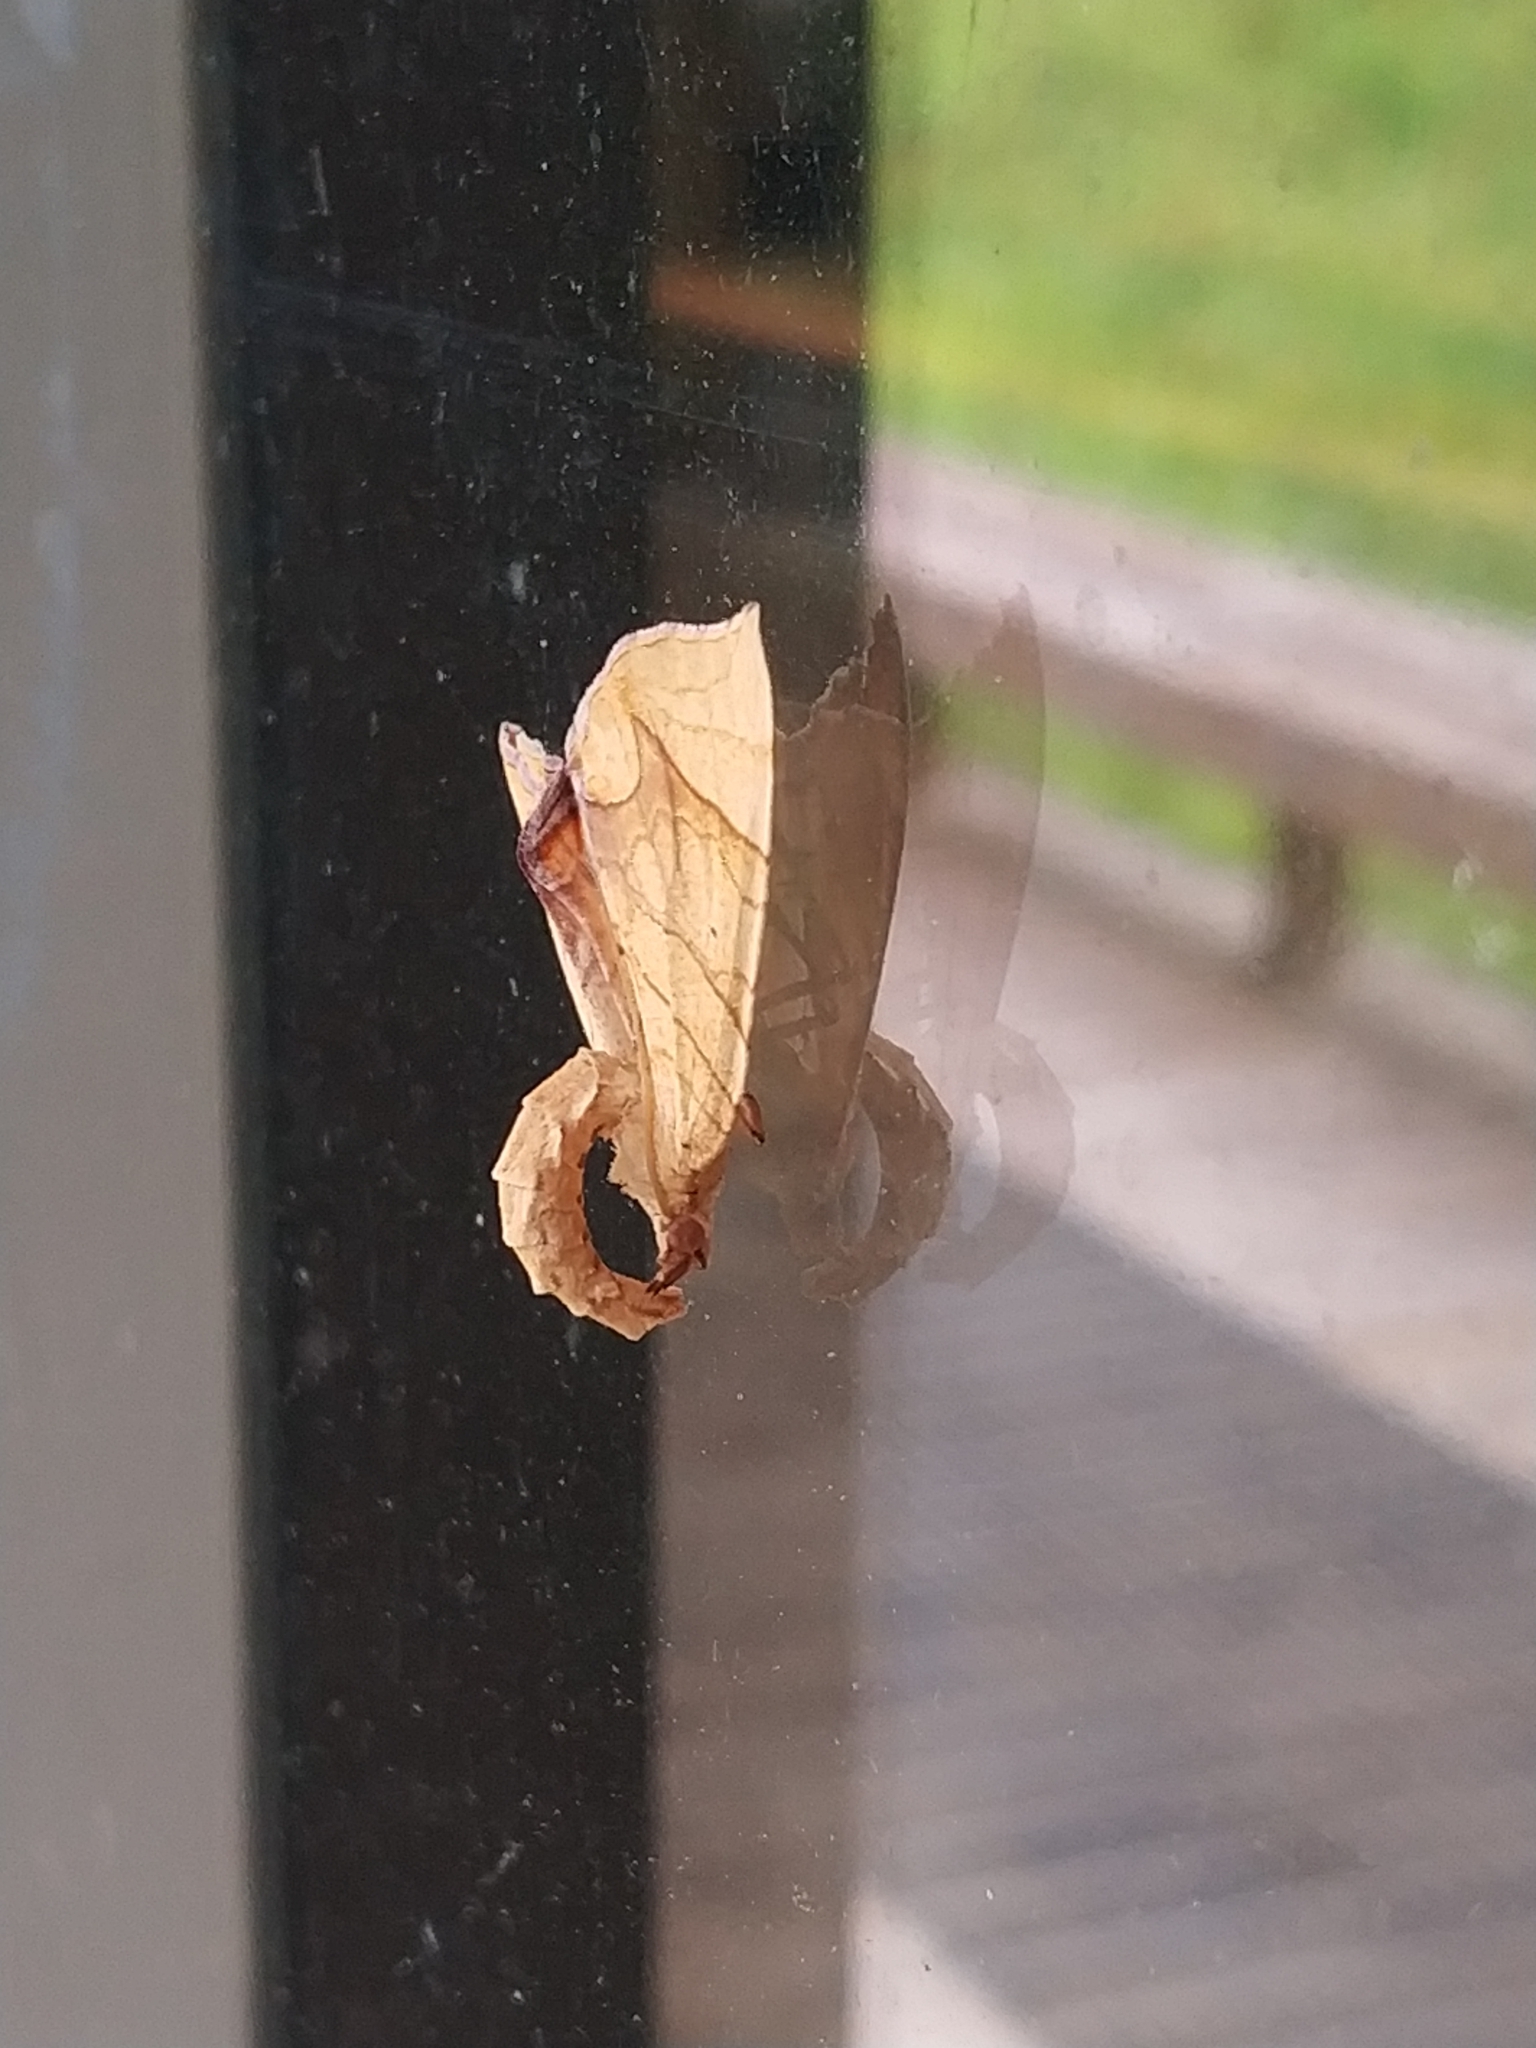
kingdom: Animalia
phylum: Arthropoda
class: Insecta
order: Lepidoptera
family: Geometridae
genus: Eulithis
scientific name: Eulithis
